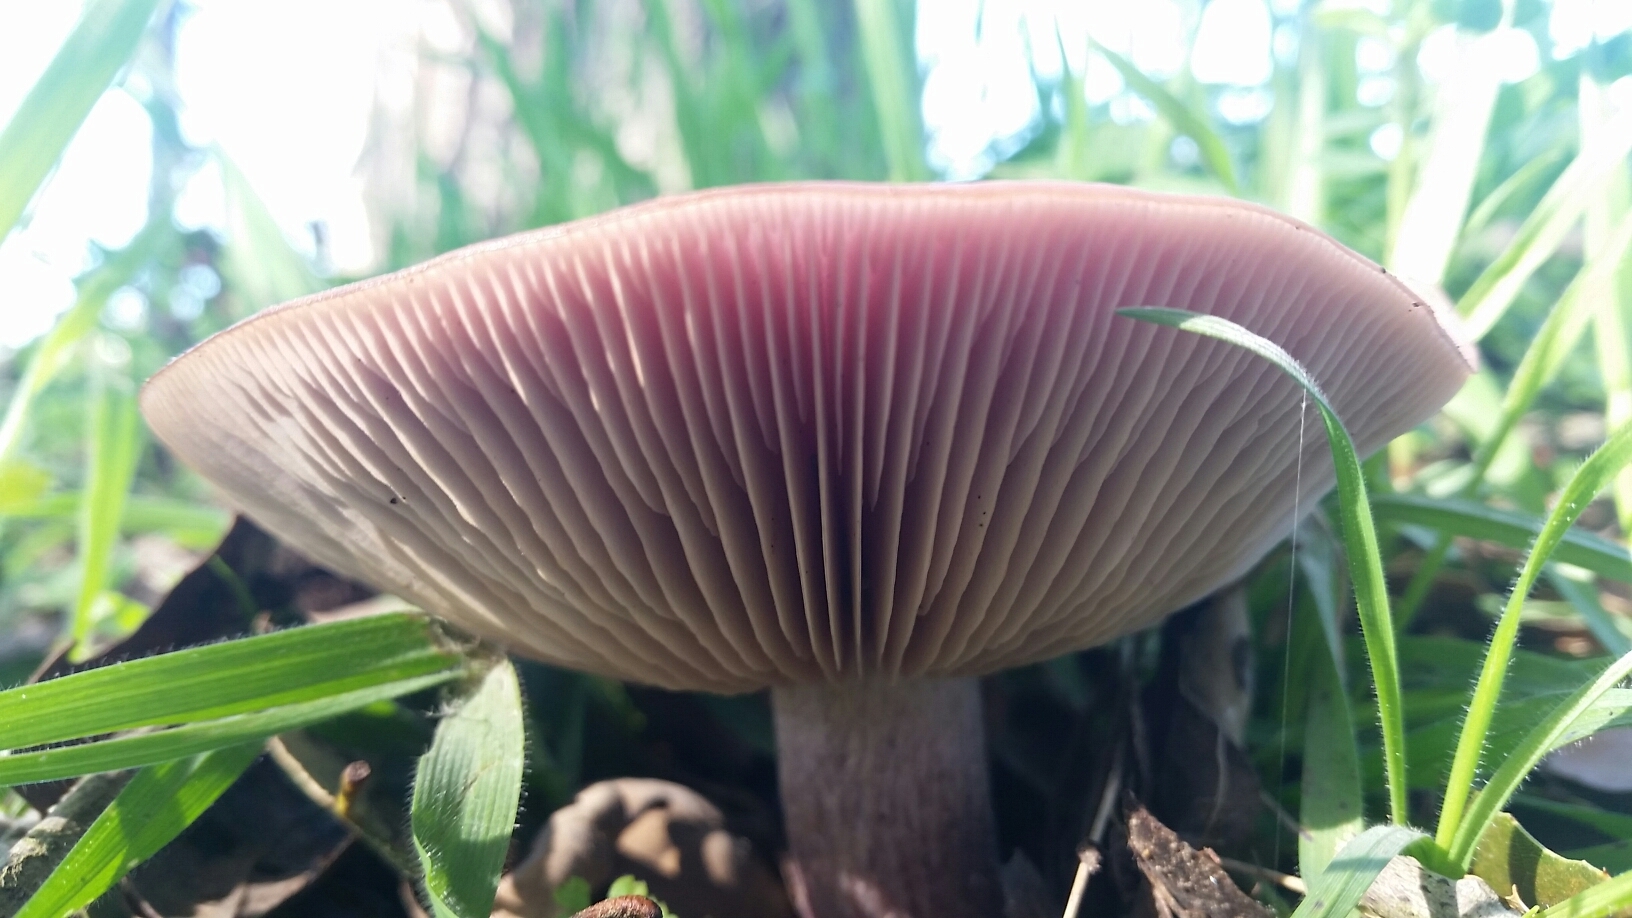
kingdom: Fungi
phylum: Basidiomycota
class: Agaricomycetes
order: Agaricales
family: Tricholomataceae
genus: Collybia
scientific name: Collybia
